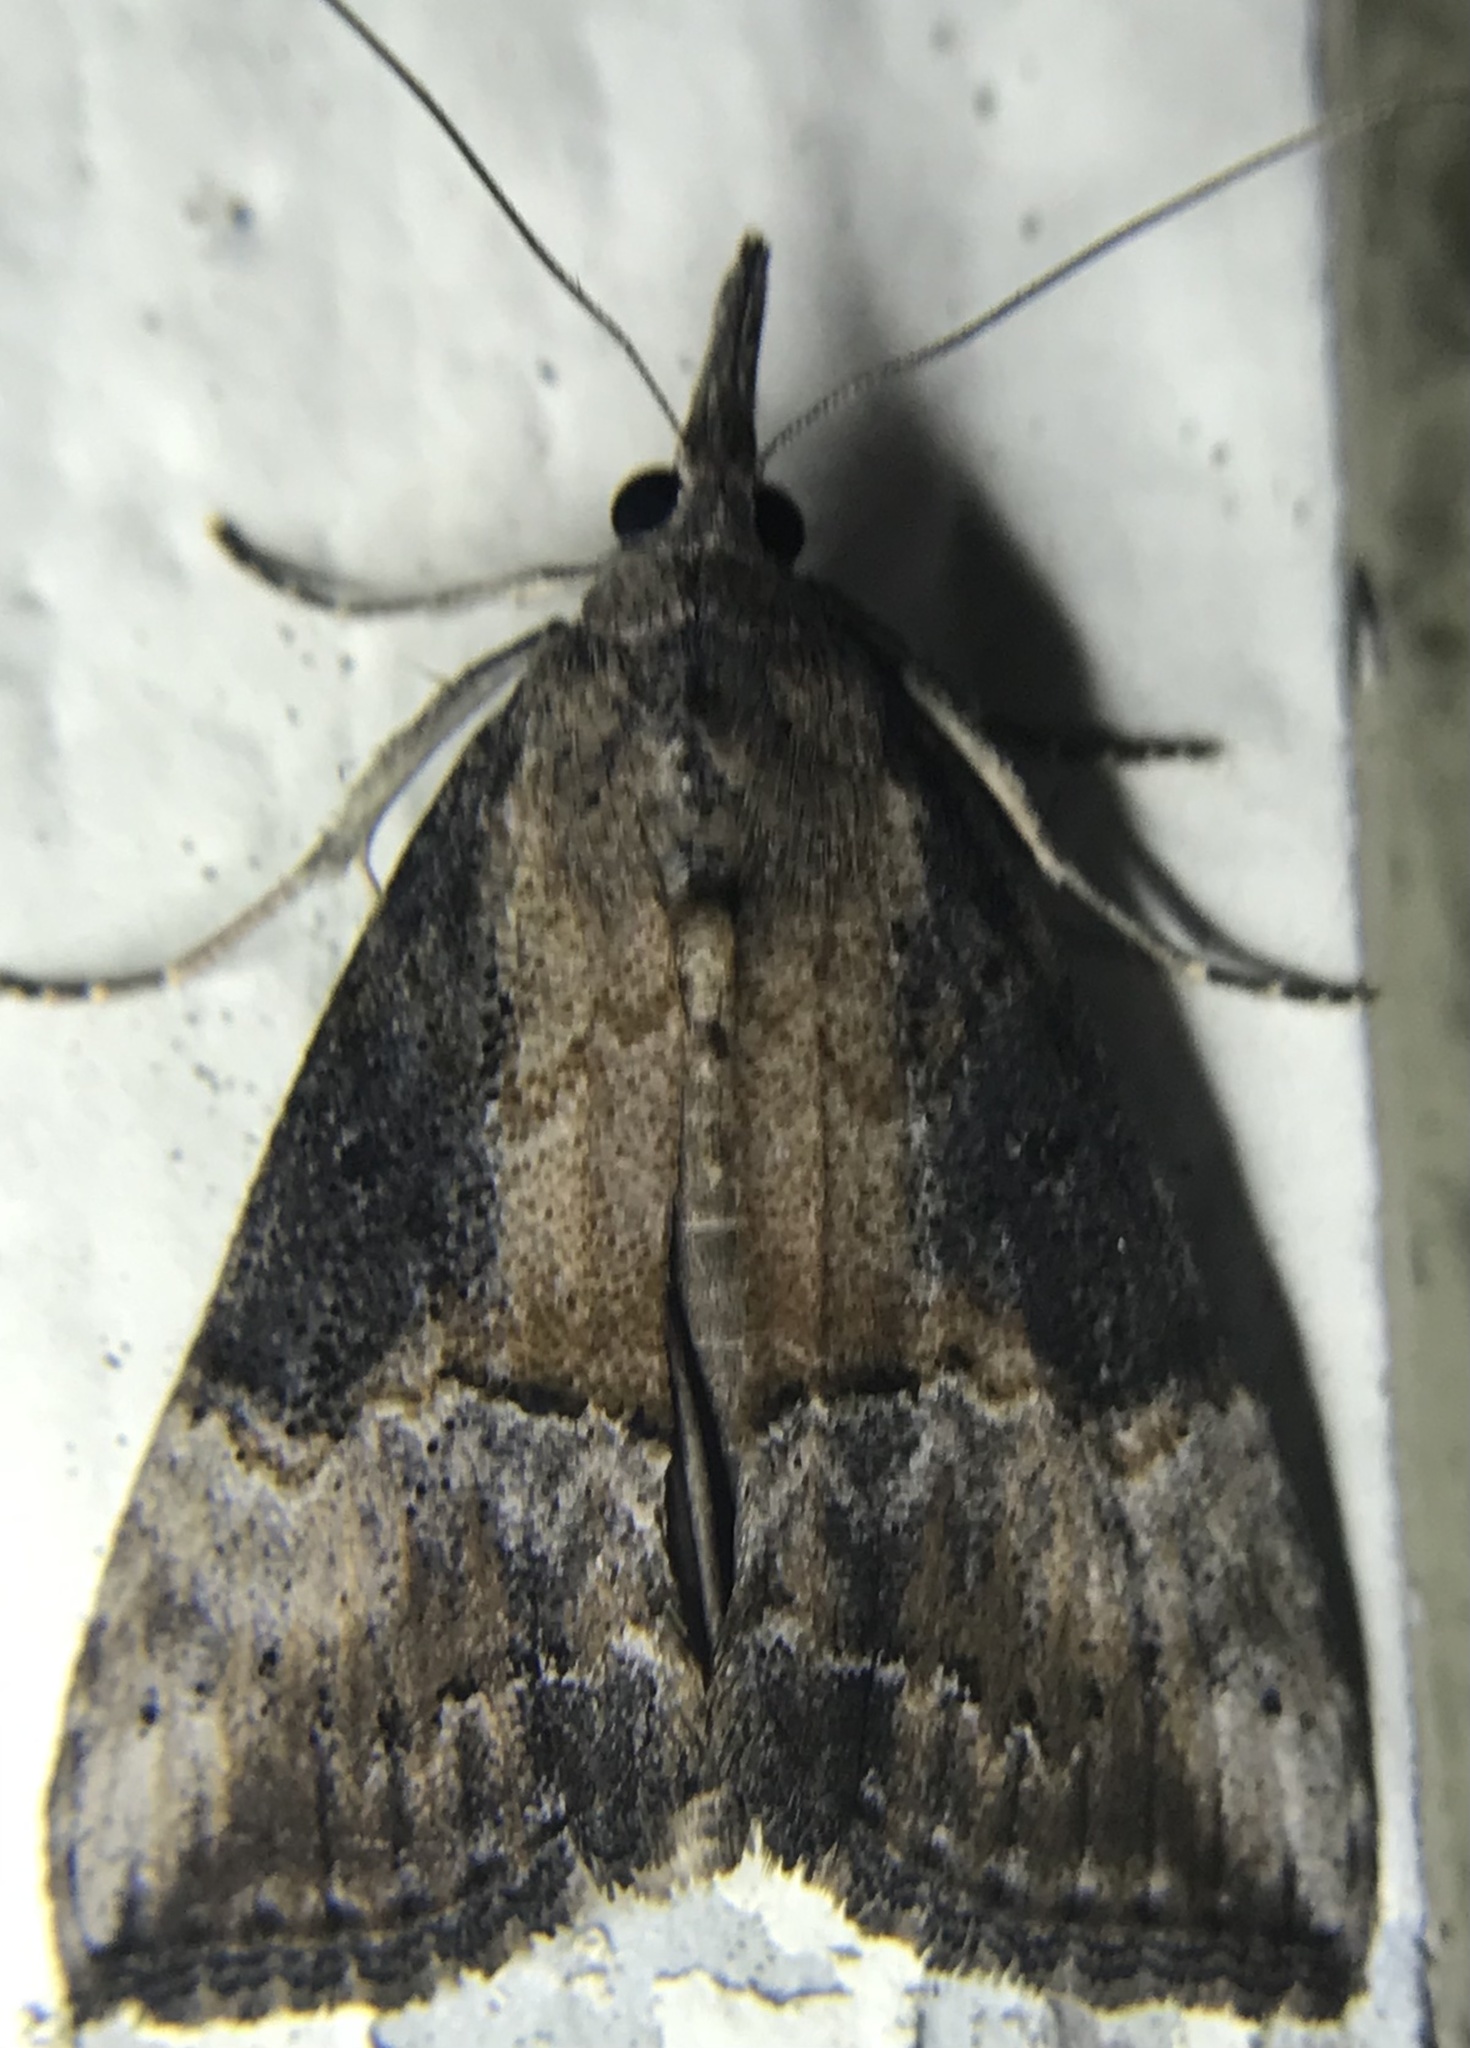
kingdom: Animalia
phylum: Arthropoda
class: Insecta
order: Lepidoptera
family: Erebidae
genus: Hypena
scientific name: Hypena scabra
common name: Green cloverworm
